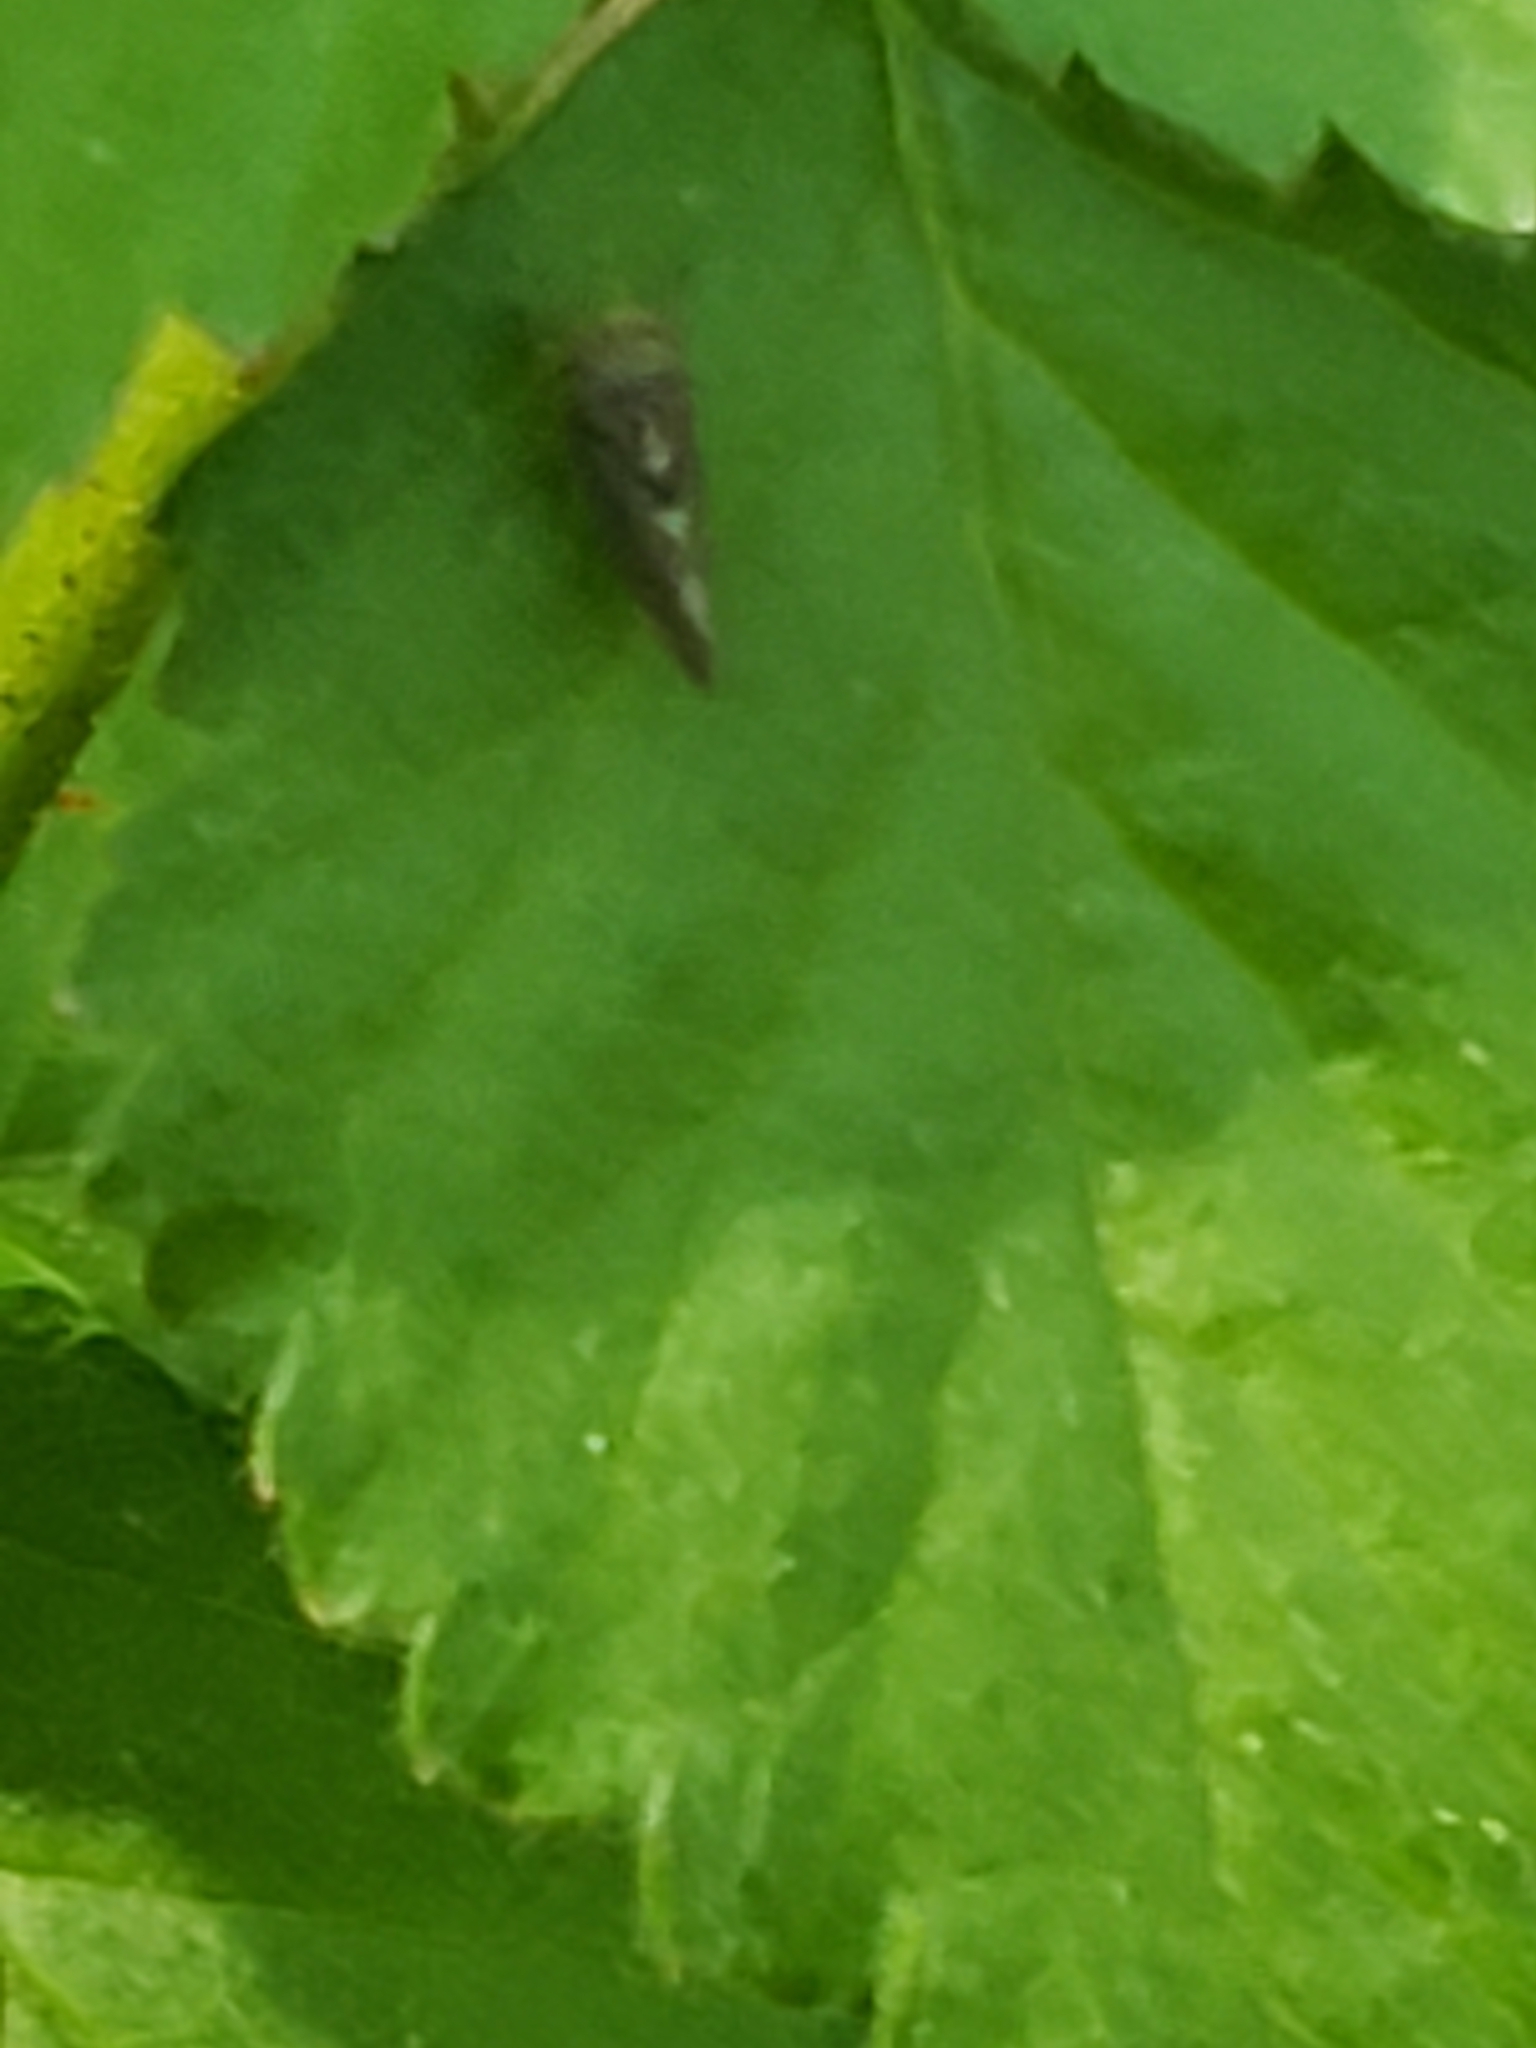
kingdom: Animalia
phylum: Arthropoda
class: Insecta
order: Hemiptera
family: Cicadellidae
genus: Agalliopsis
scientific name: Agalliopsis novella
